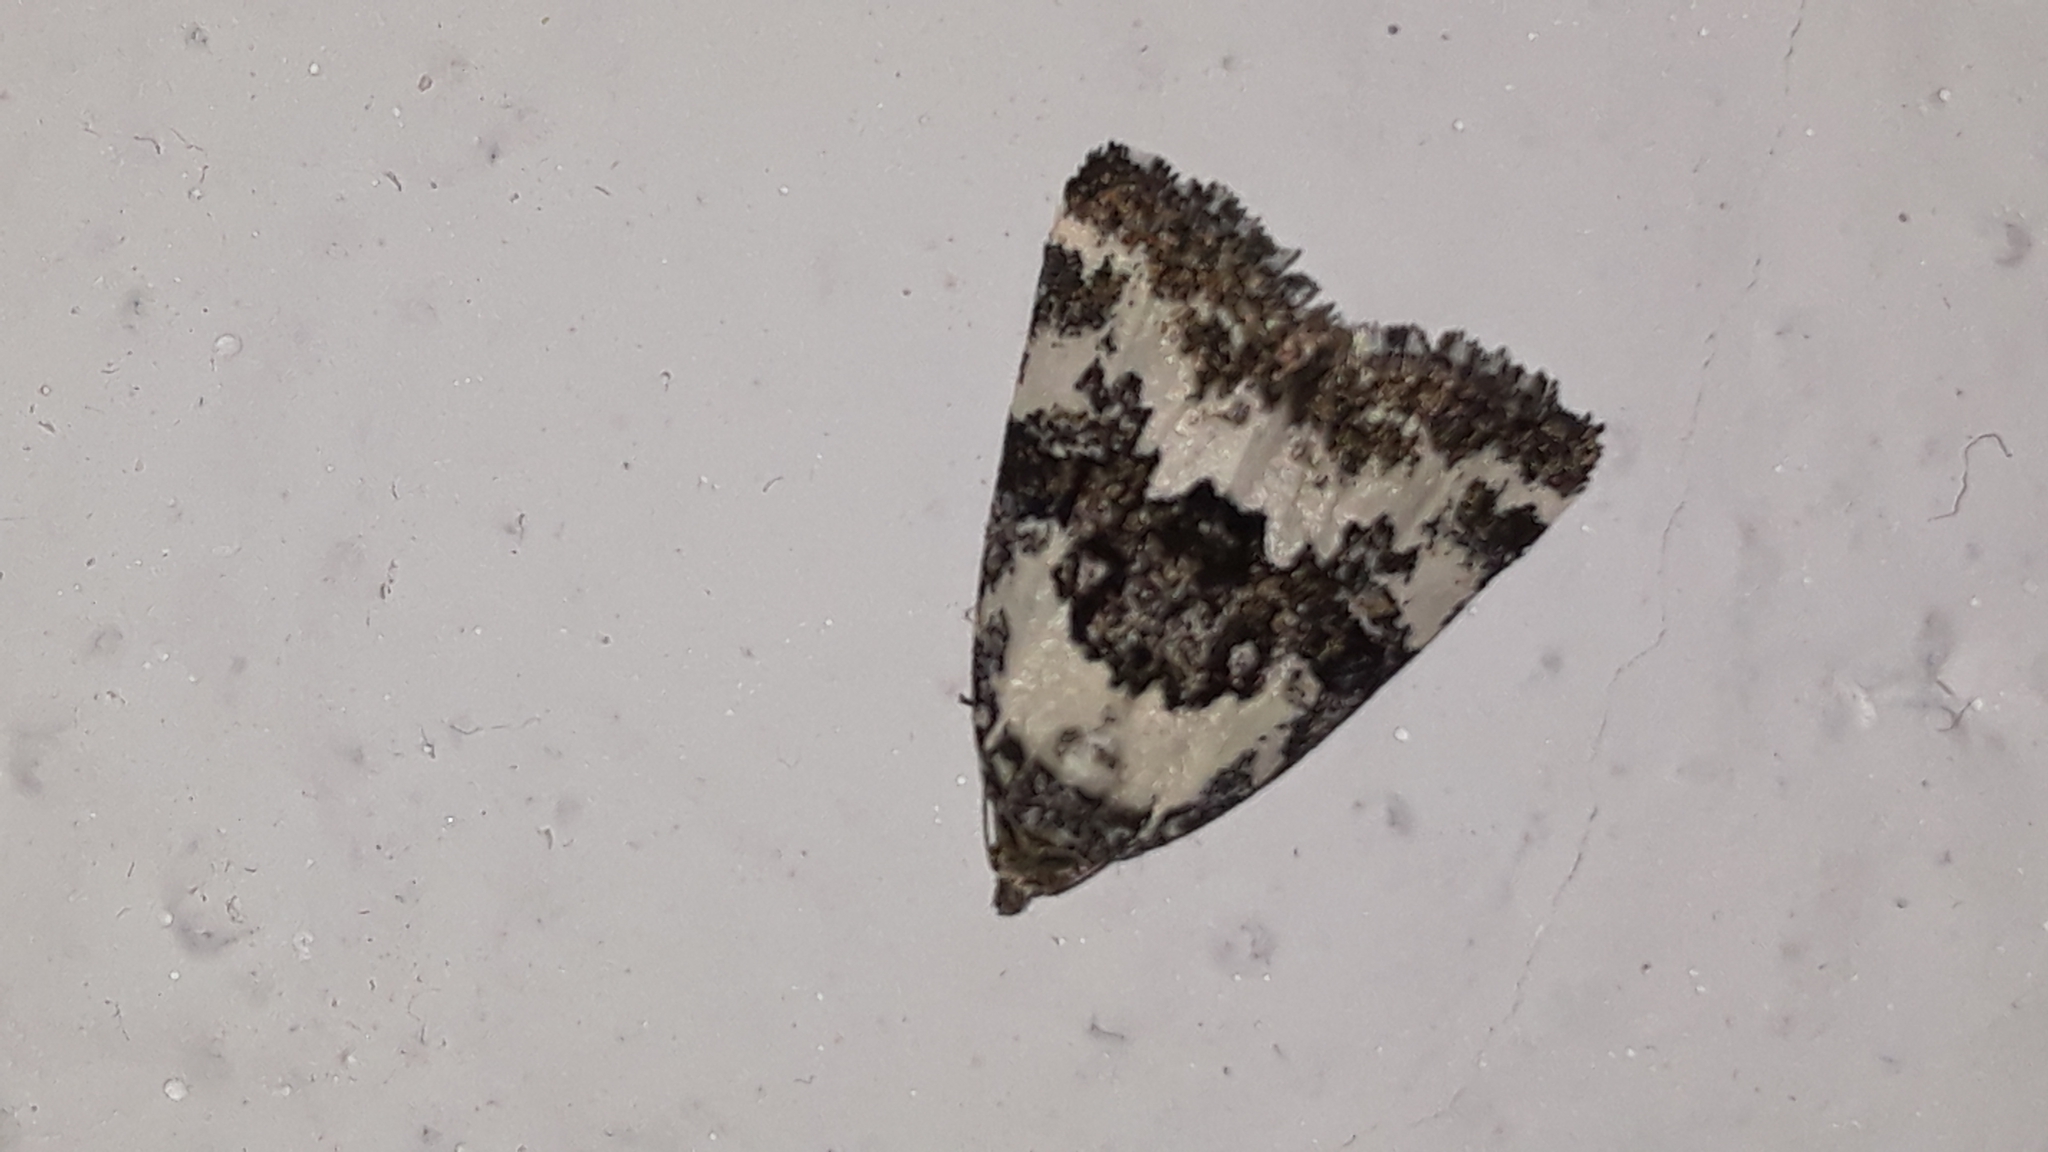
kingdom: Animalia
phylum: Arthropoda
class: Insecta
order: Lepidoptera
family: Noctuidae
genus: Deltote
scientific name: Deltote deceptoria
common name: Pretty marbled
